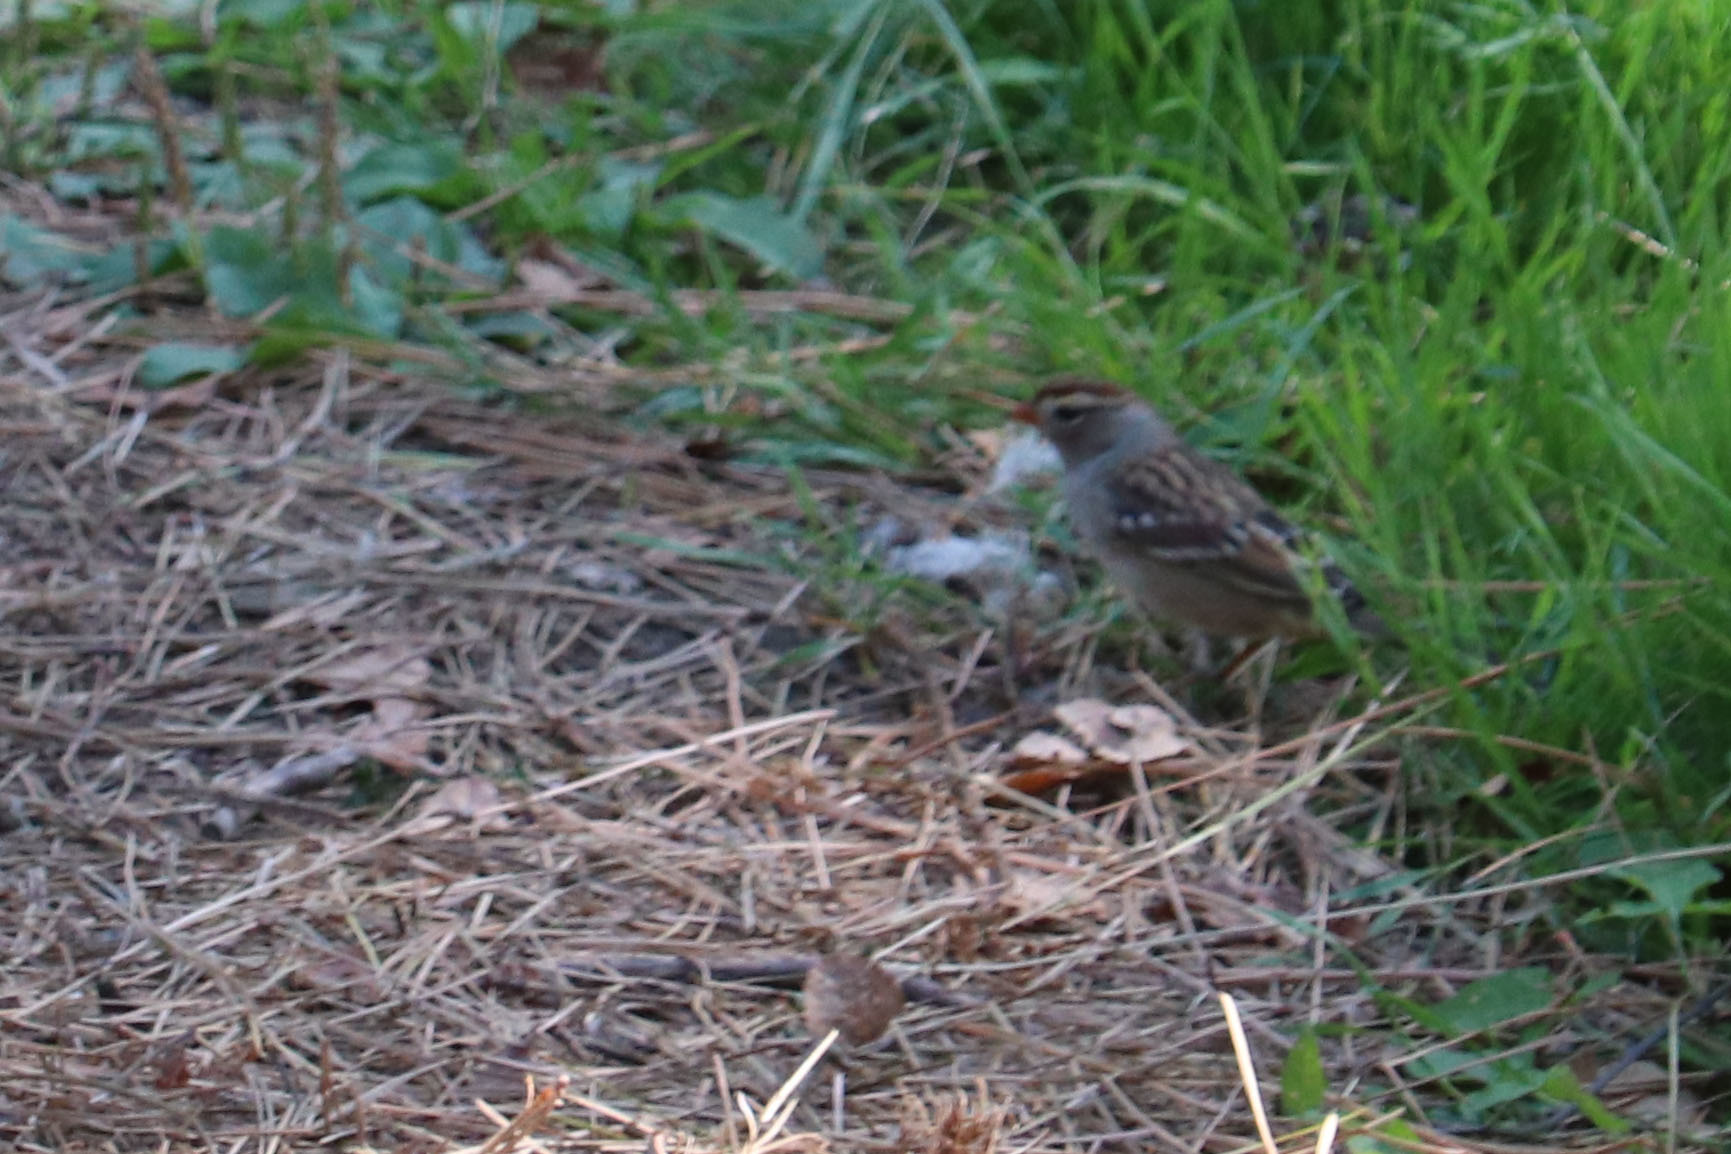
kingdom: Animalia
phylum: Chordata
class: Aves
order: Passeriformes
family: Passerellidae
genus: Zonotrichia
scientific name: Zonotrichia leucophrys
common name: White-crowned sparrow
